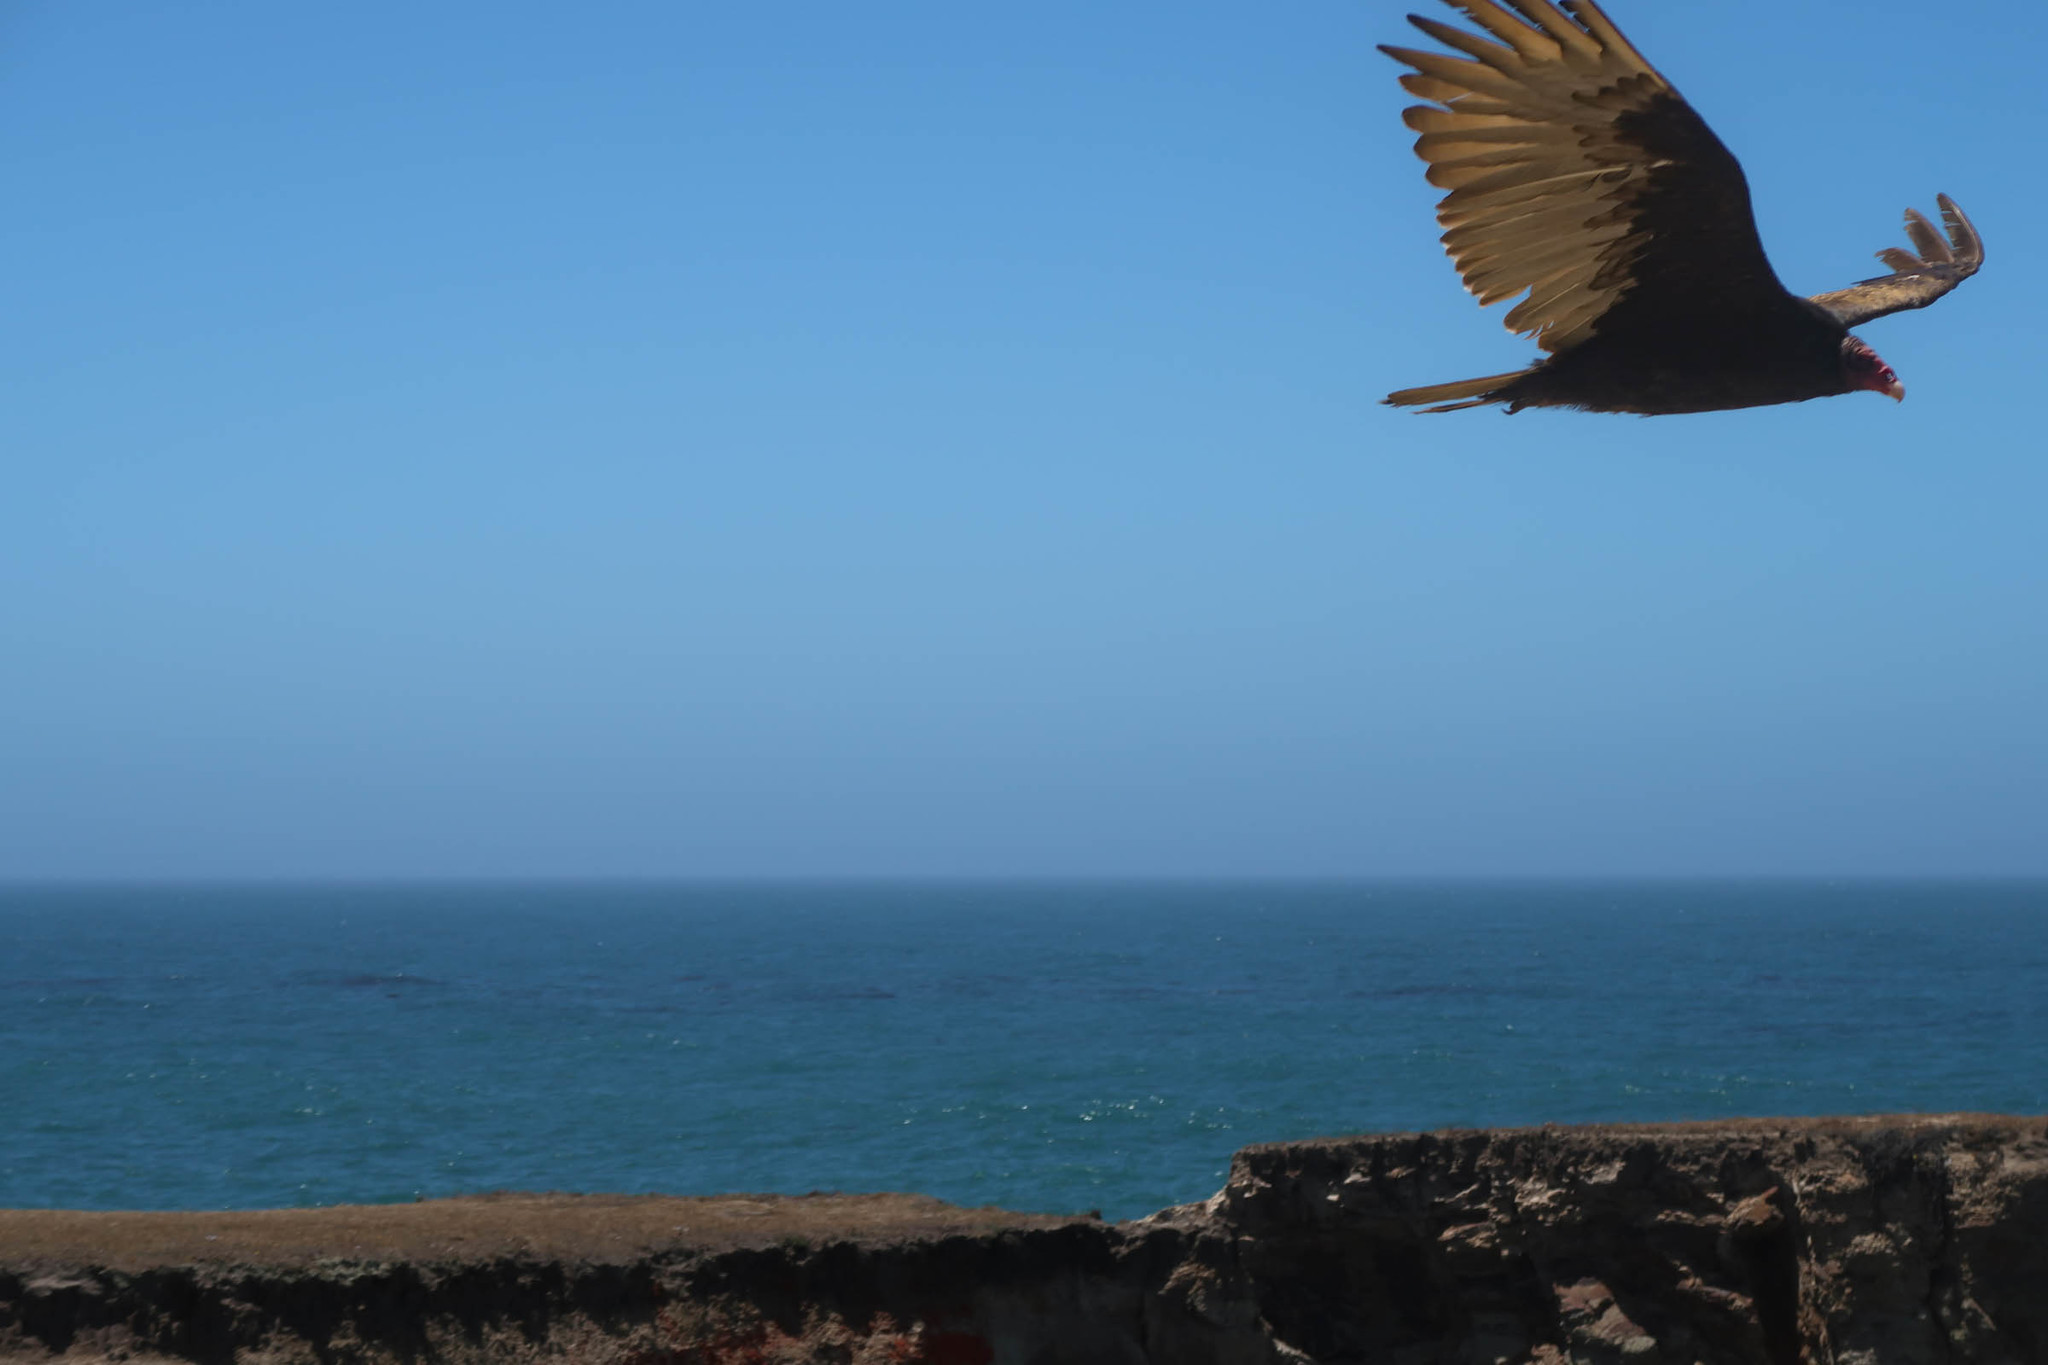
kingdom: Animalia
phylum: Chordata
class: Aves
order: Accipitriformes
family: Cathartidae
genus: Cathartes
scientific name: Cathartes aura
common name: Turkey vulture
